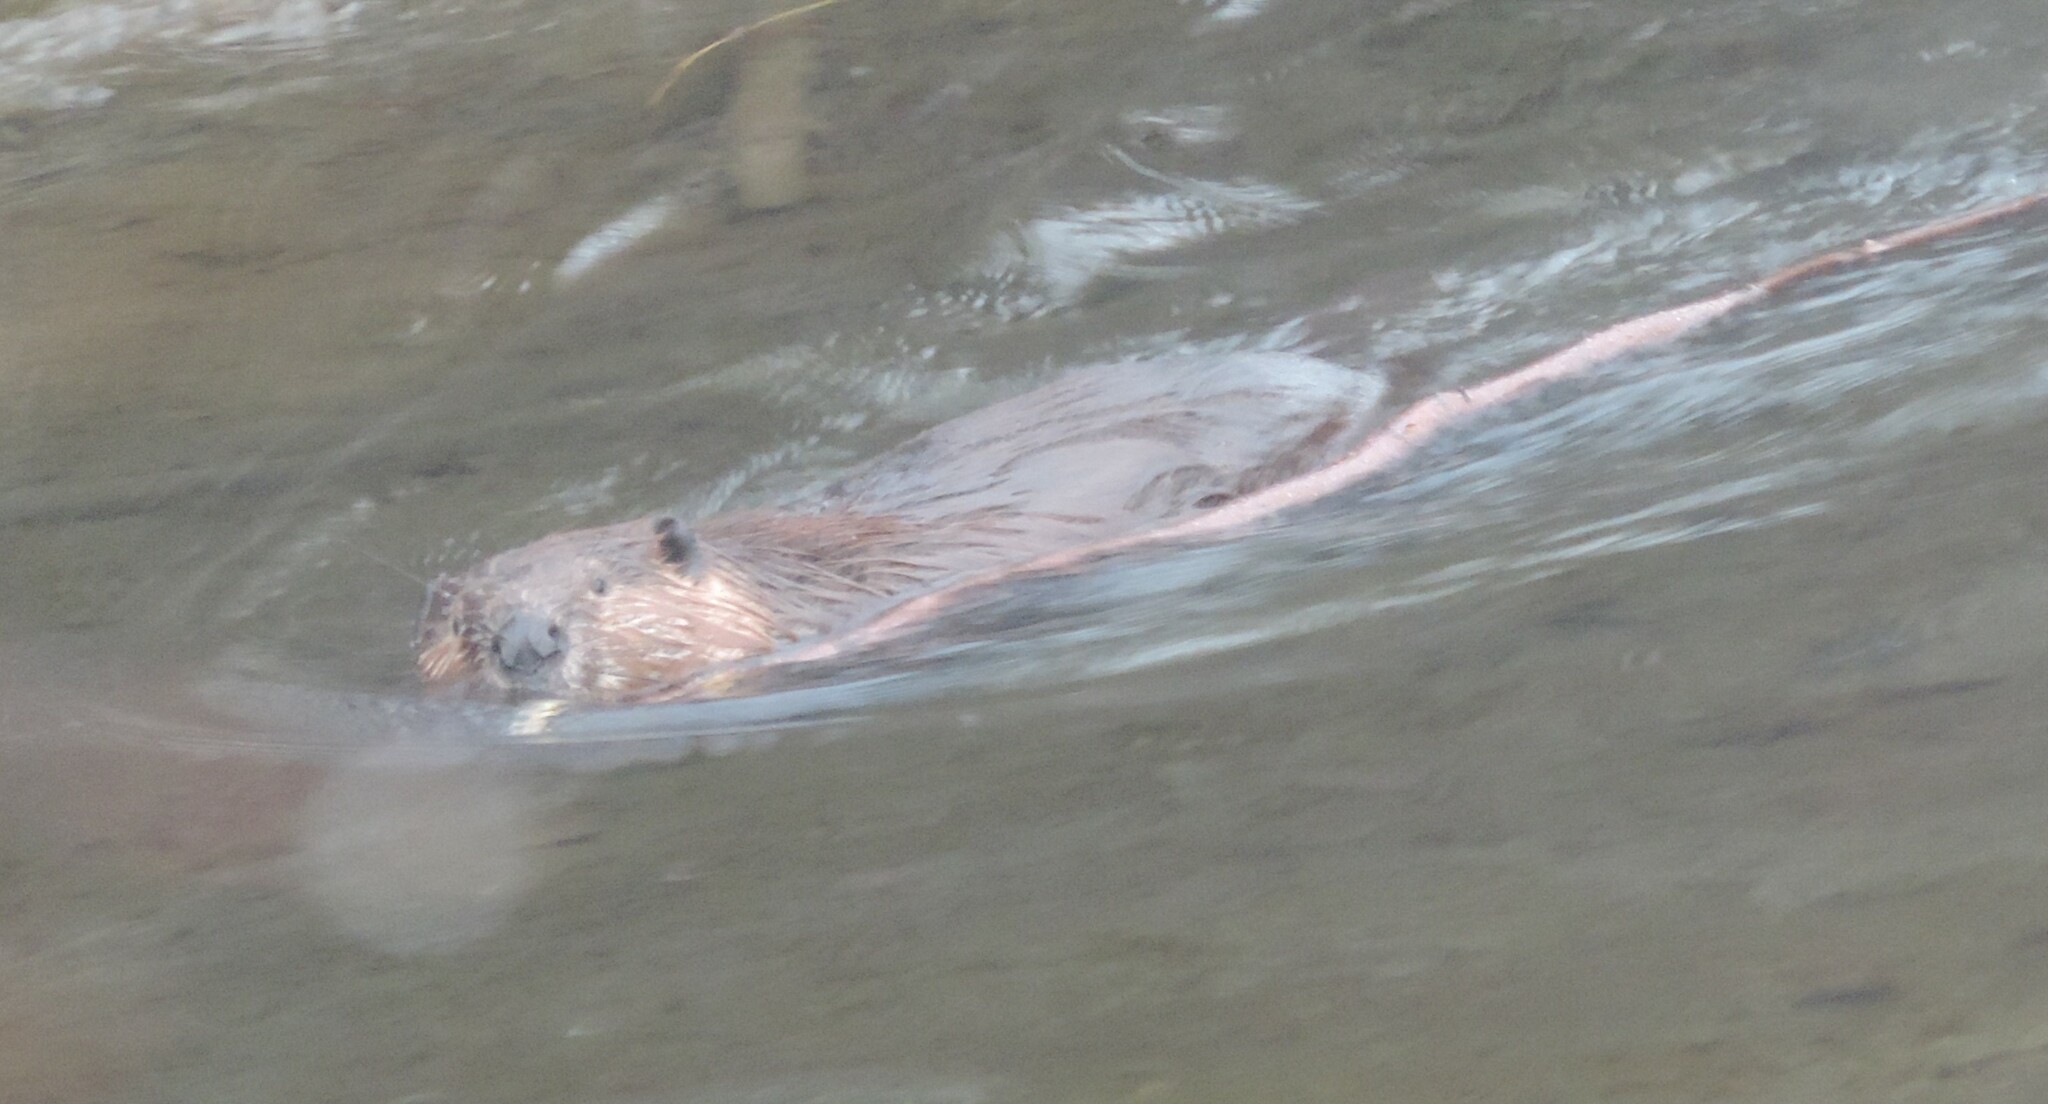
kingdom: Animalia
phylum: Chordata
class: Mammalia
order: Rodentia
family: Castoridae
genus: Castor
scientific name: Castor canadensis
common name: American beaver
